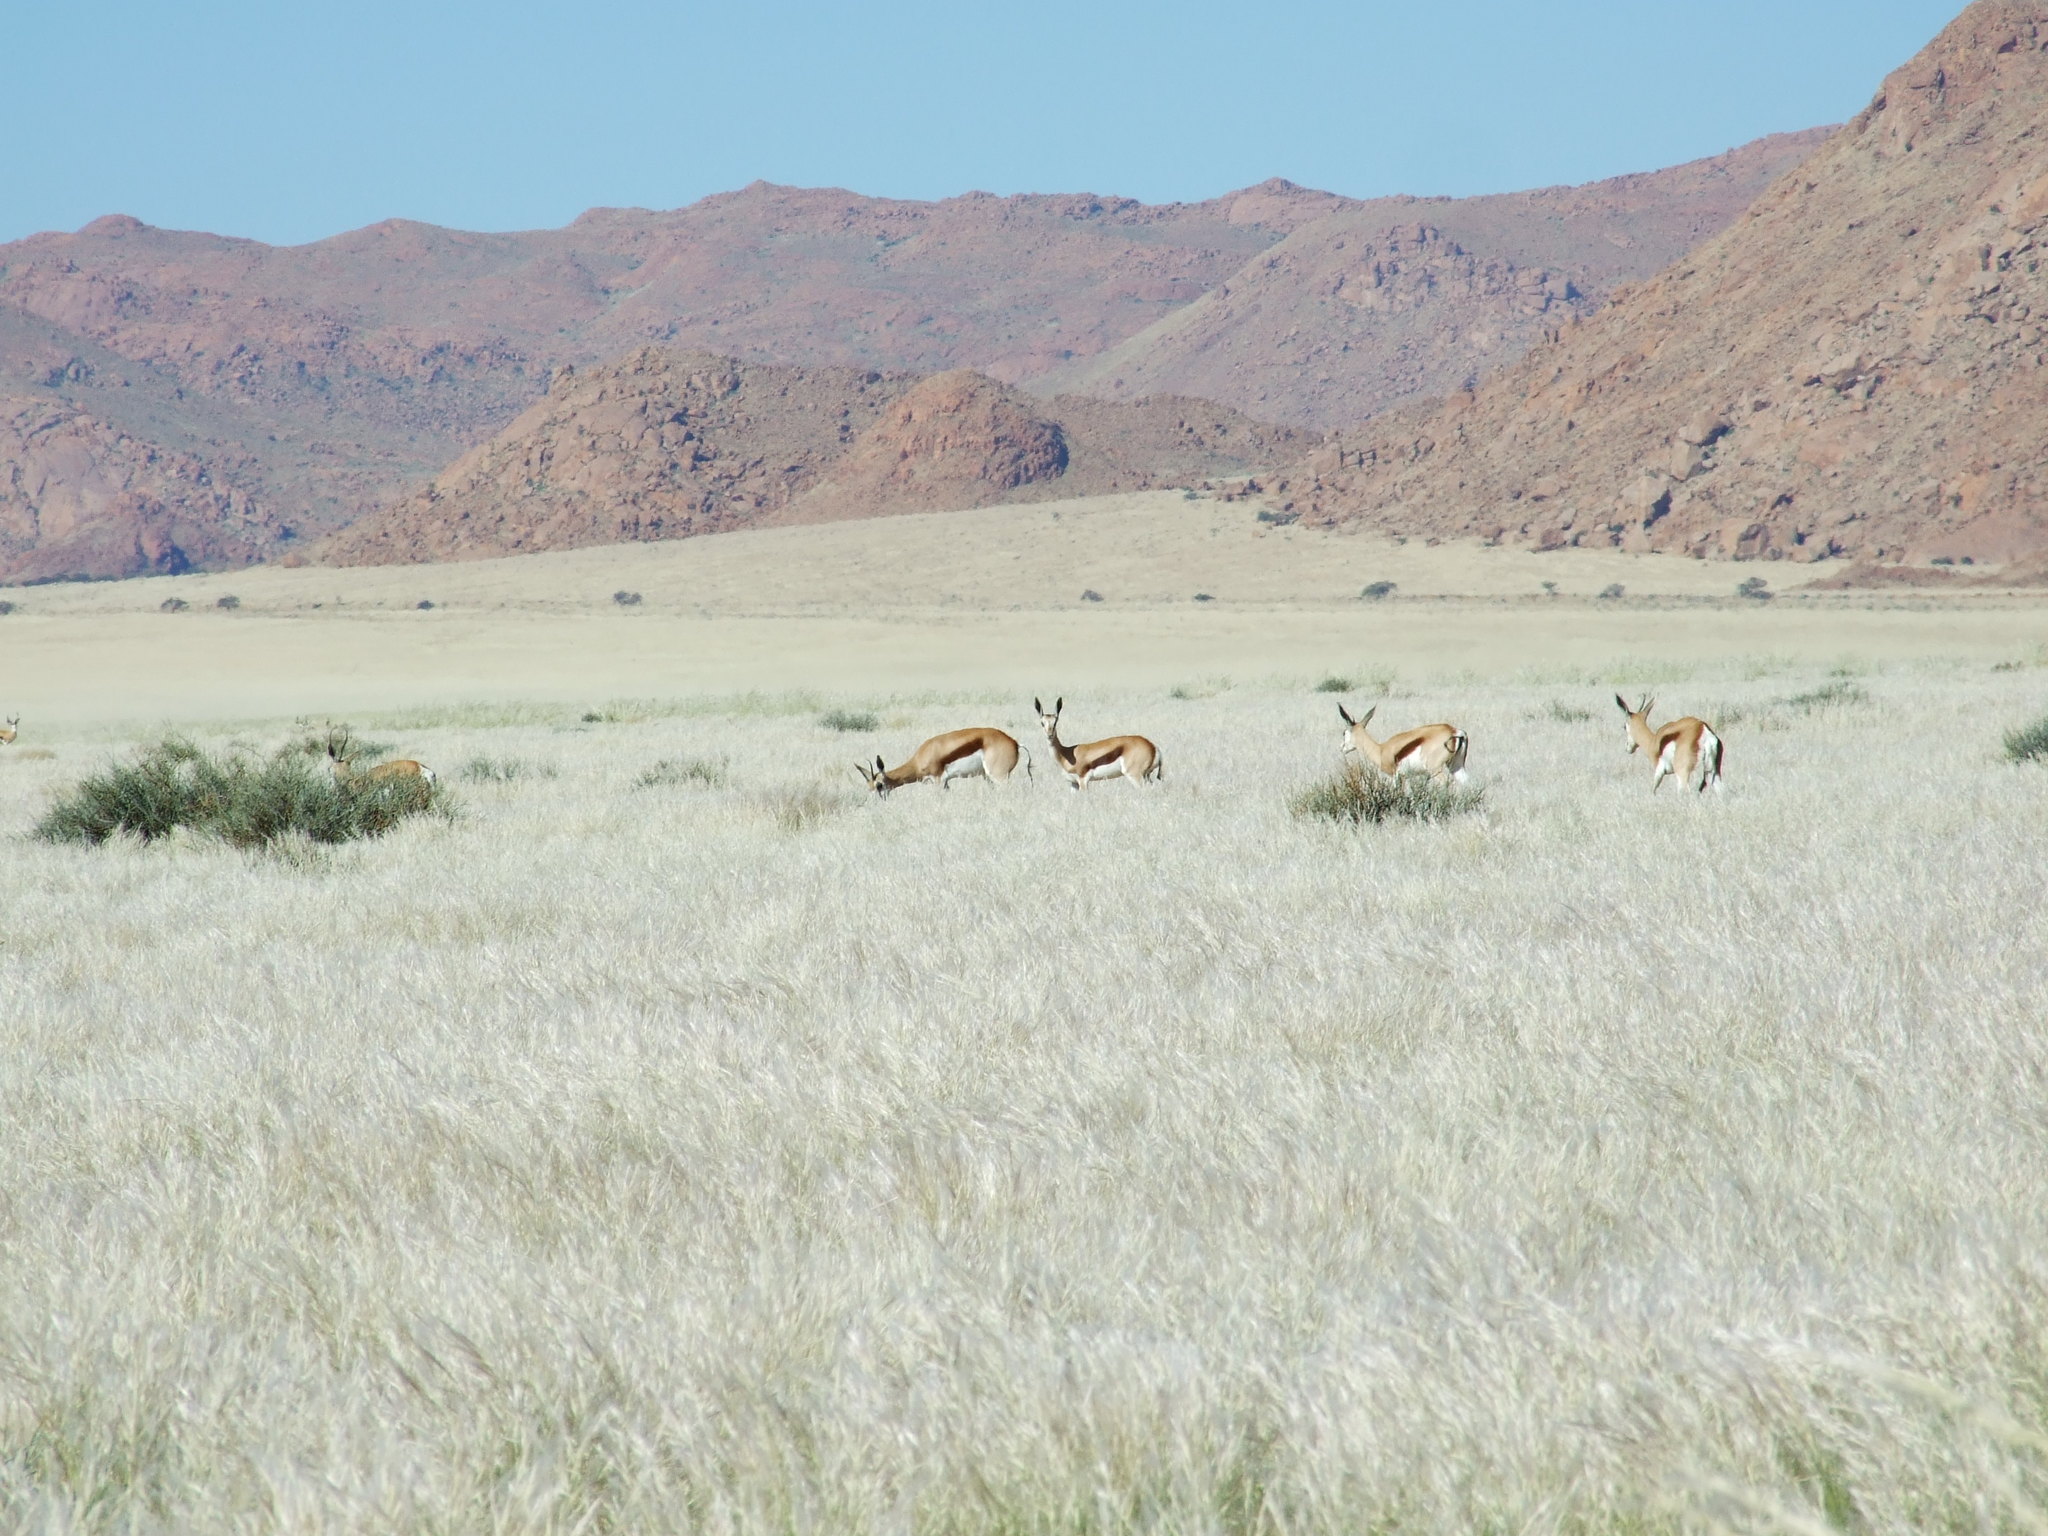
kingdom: Animalia
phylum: Chordata
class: Mammalia
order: Artiodactyla
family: Bovidae
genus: Antidorcas
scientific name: Antidorcas marsupialis
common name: Springbok
